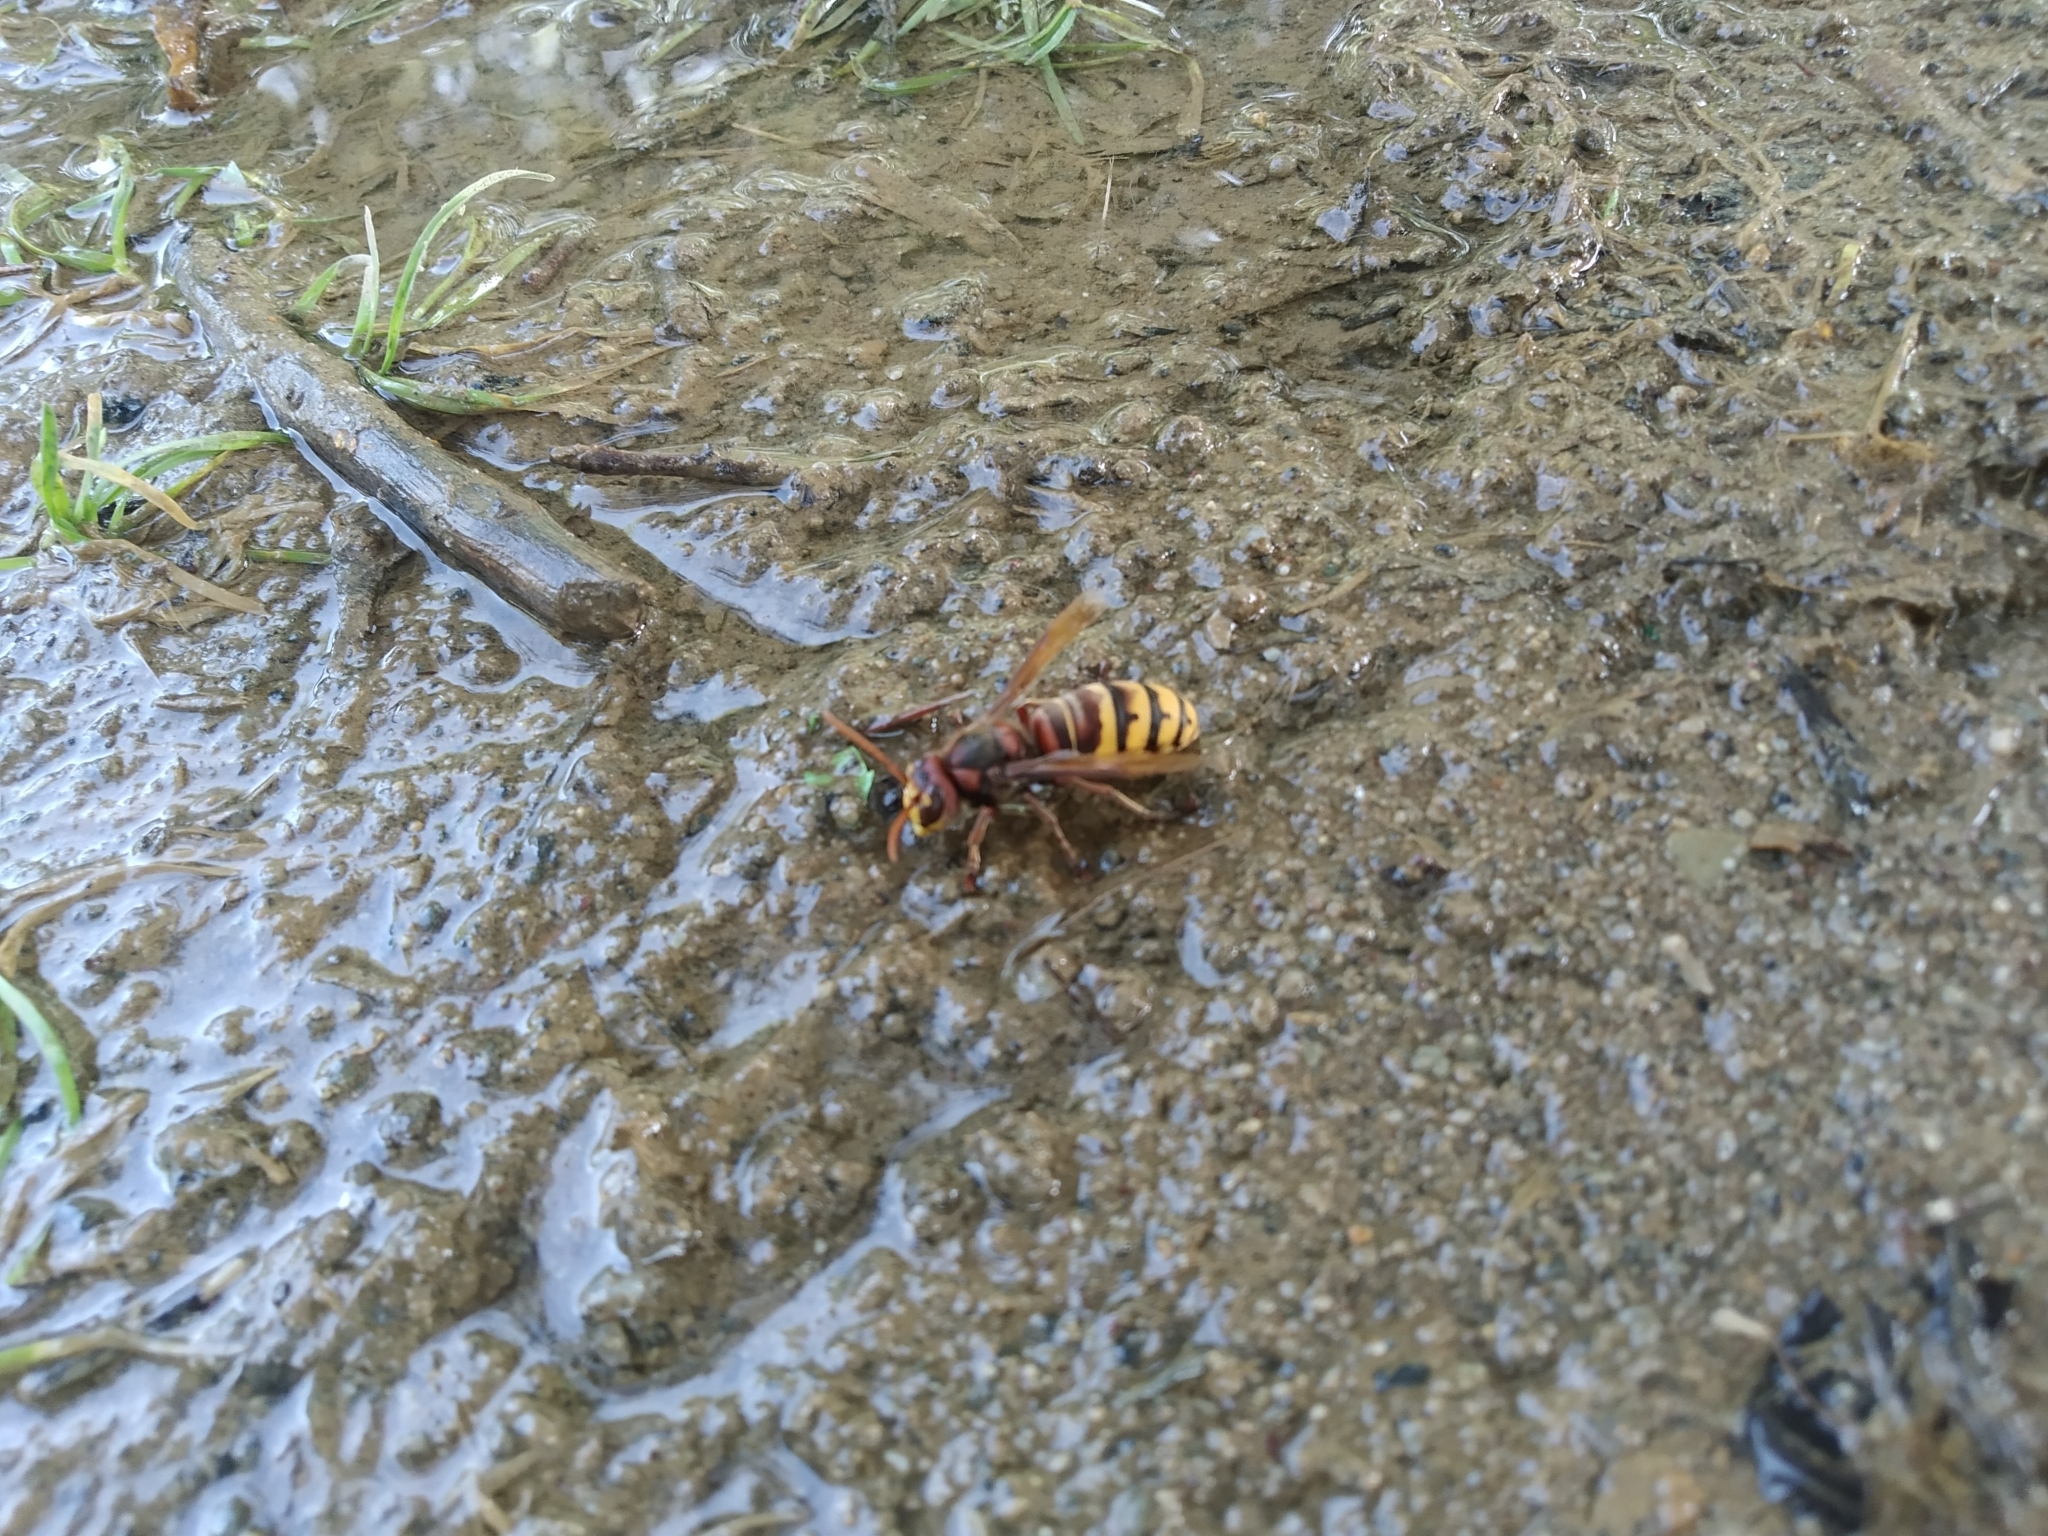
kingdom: Animalia
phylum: Arthropoda
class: Insecta
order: Hymenoptera
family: Vespidae
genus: Vespa
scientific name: Vespa crabro
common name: Hornet
